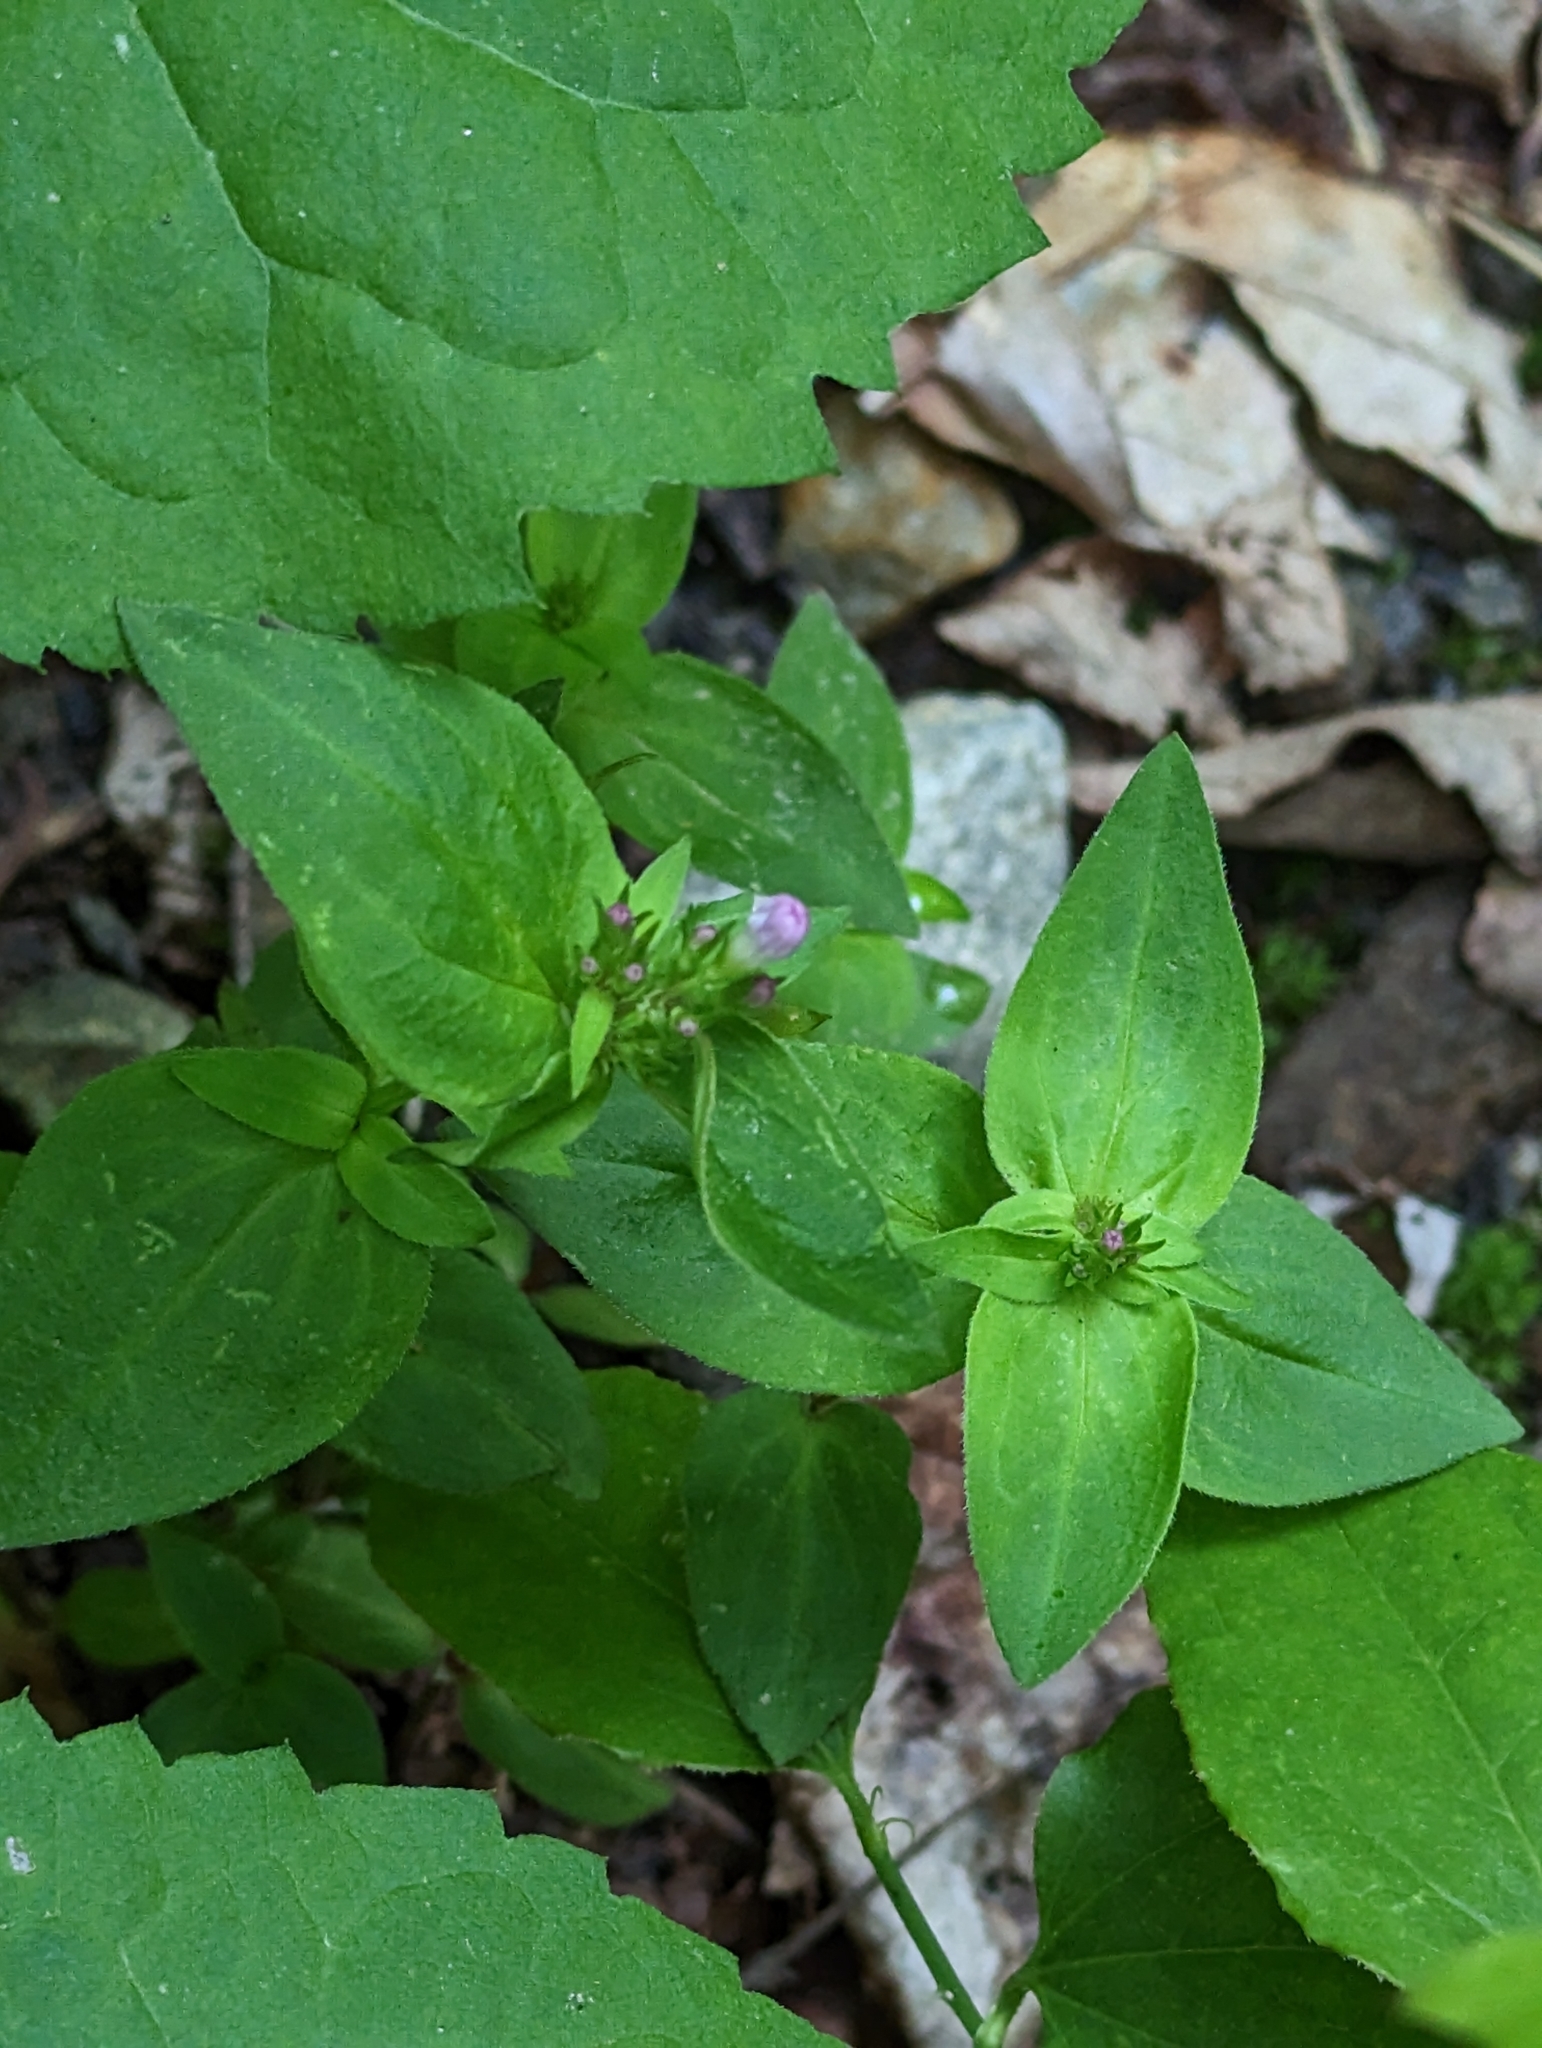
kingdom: Plantae
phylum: Tracheophyta
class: Magnoliopsida
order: Gentianales
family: Rubiaceae
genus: Houstonia
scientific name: Houstonia purpurea
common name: Summer bluet
